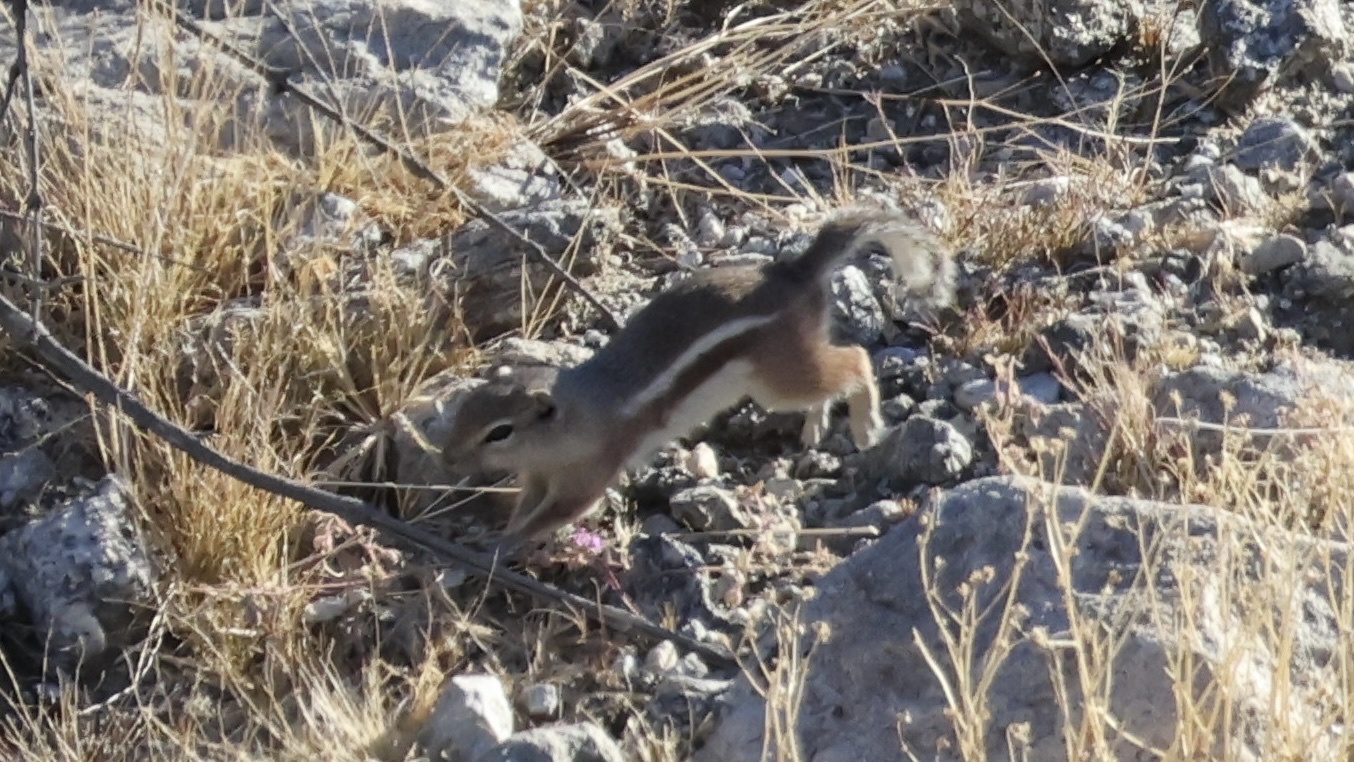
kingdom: Animalia
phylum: Chordata
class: Mammalia
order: Rodentia
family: Sciuridae
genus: Ammospermophilus
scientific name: Ammospermophilus leucurus
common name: White-tailed antelope squirrel
